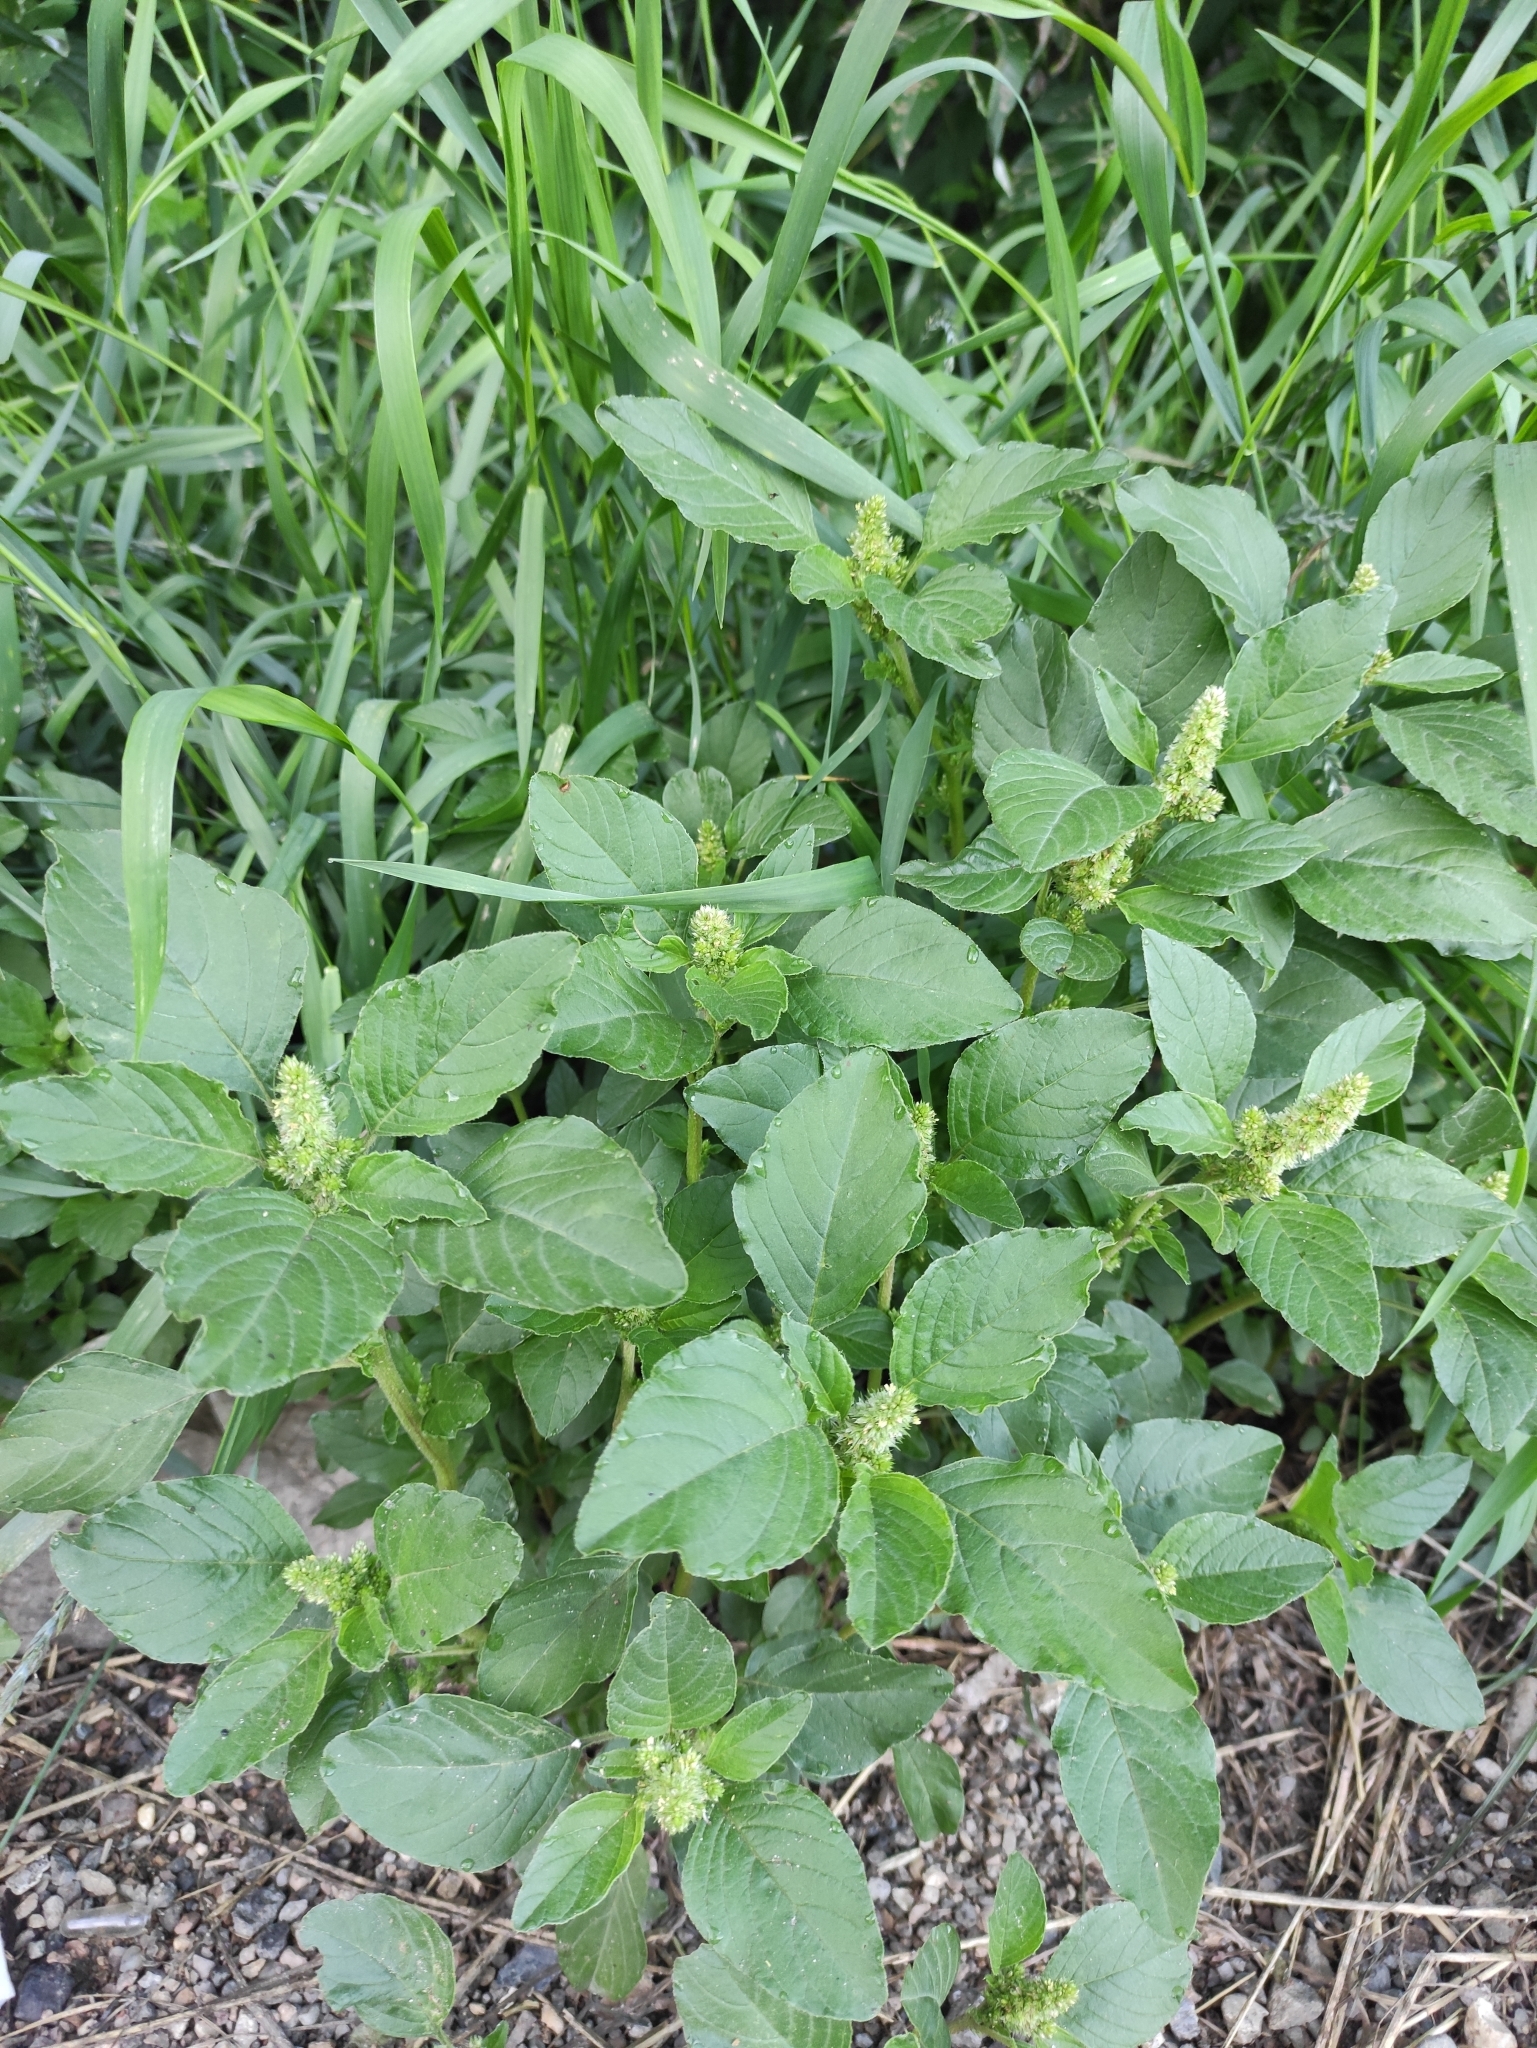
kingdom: Plantae
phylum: Tracheophyta
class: Magnoliopsida
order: Caryophyllales
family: Amaranthaceae
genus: Amaranthus
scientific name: Amaranthus retroflexus
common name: Redroot amaranth
